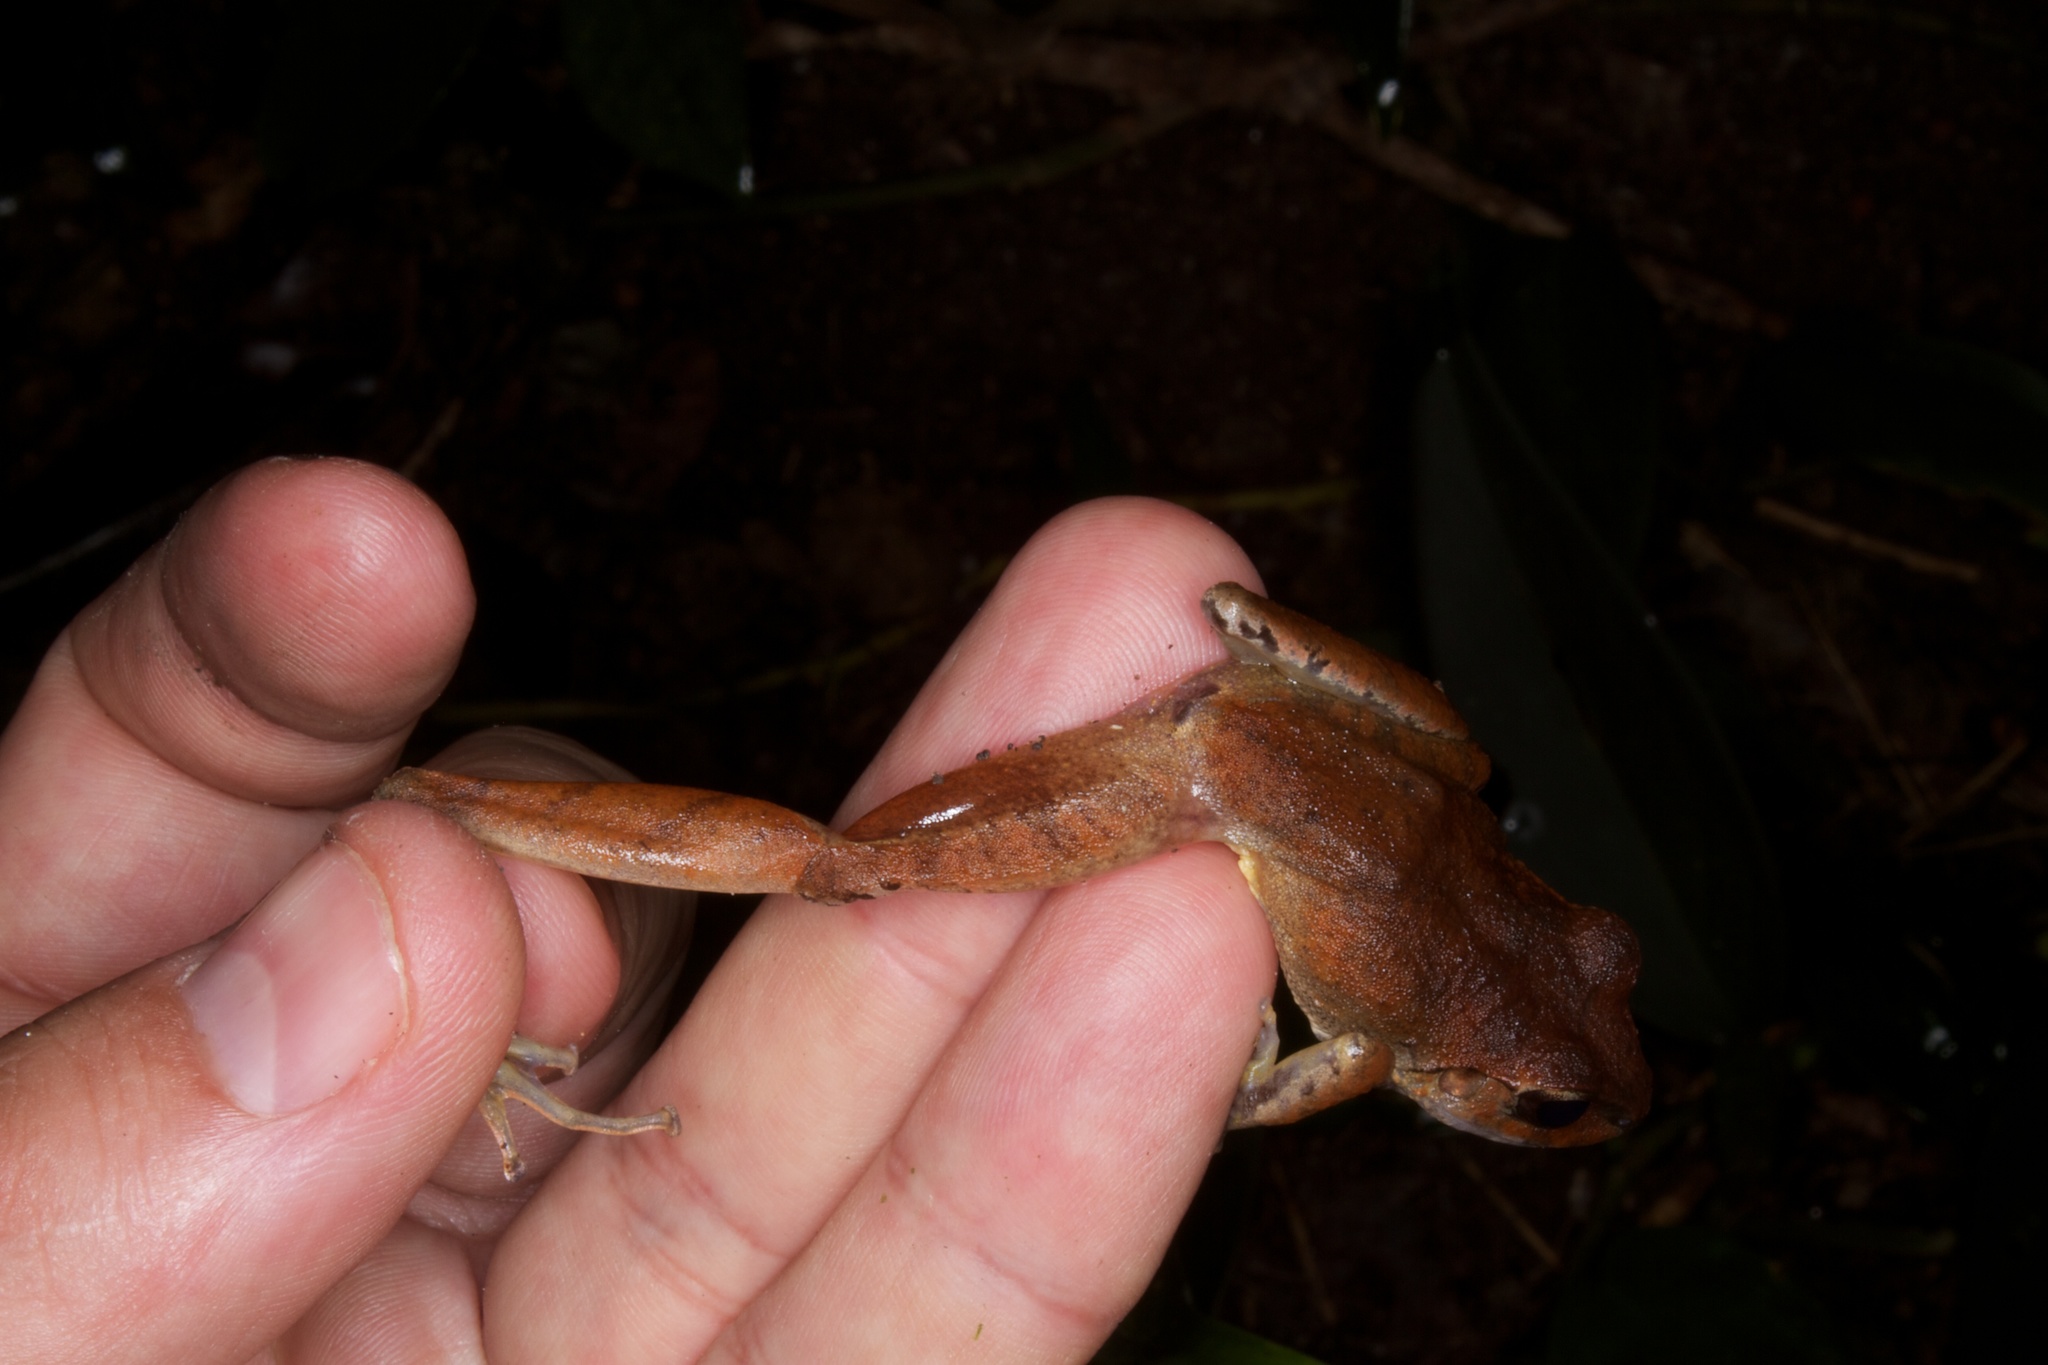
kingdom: Animalia
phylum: Chordata
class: Amphibia
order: Anura
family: Craugastoridae
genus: Craugastor
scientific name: Craugastor crassidigitus
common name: Isla bonita robber frog
